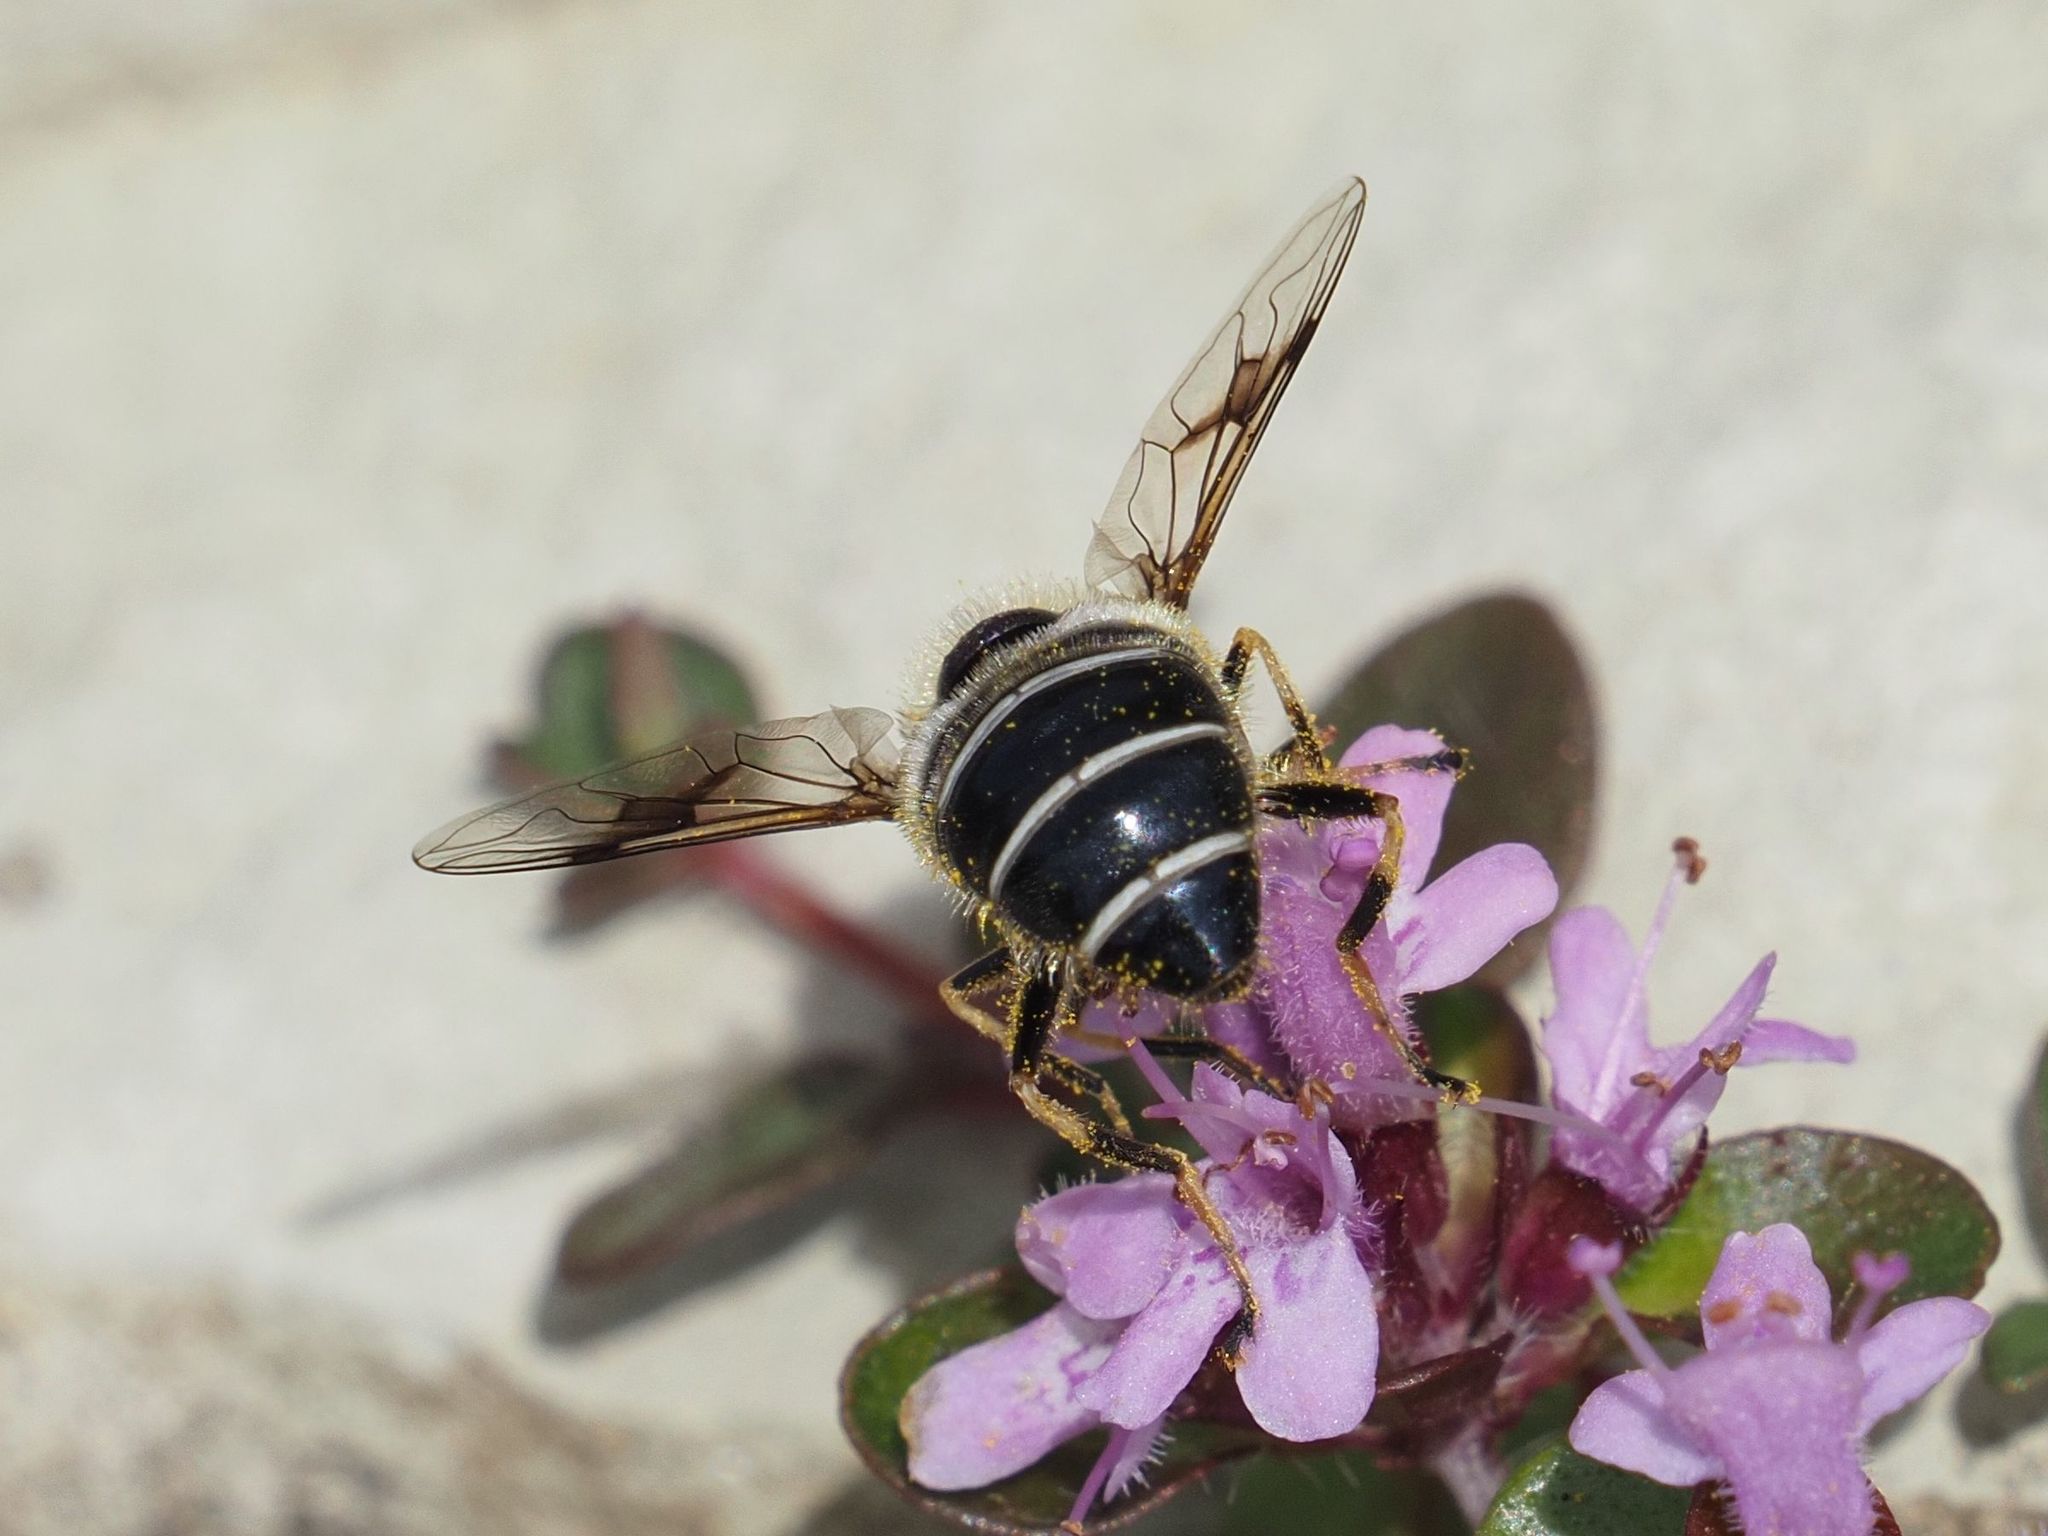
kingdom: Animalia
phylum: Arthropoda
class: Insecta
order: Diptera
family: Syrphidae
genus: Eristalis
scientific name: Eristalis rupium
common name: Hover fly
